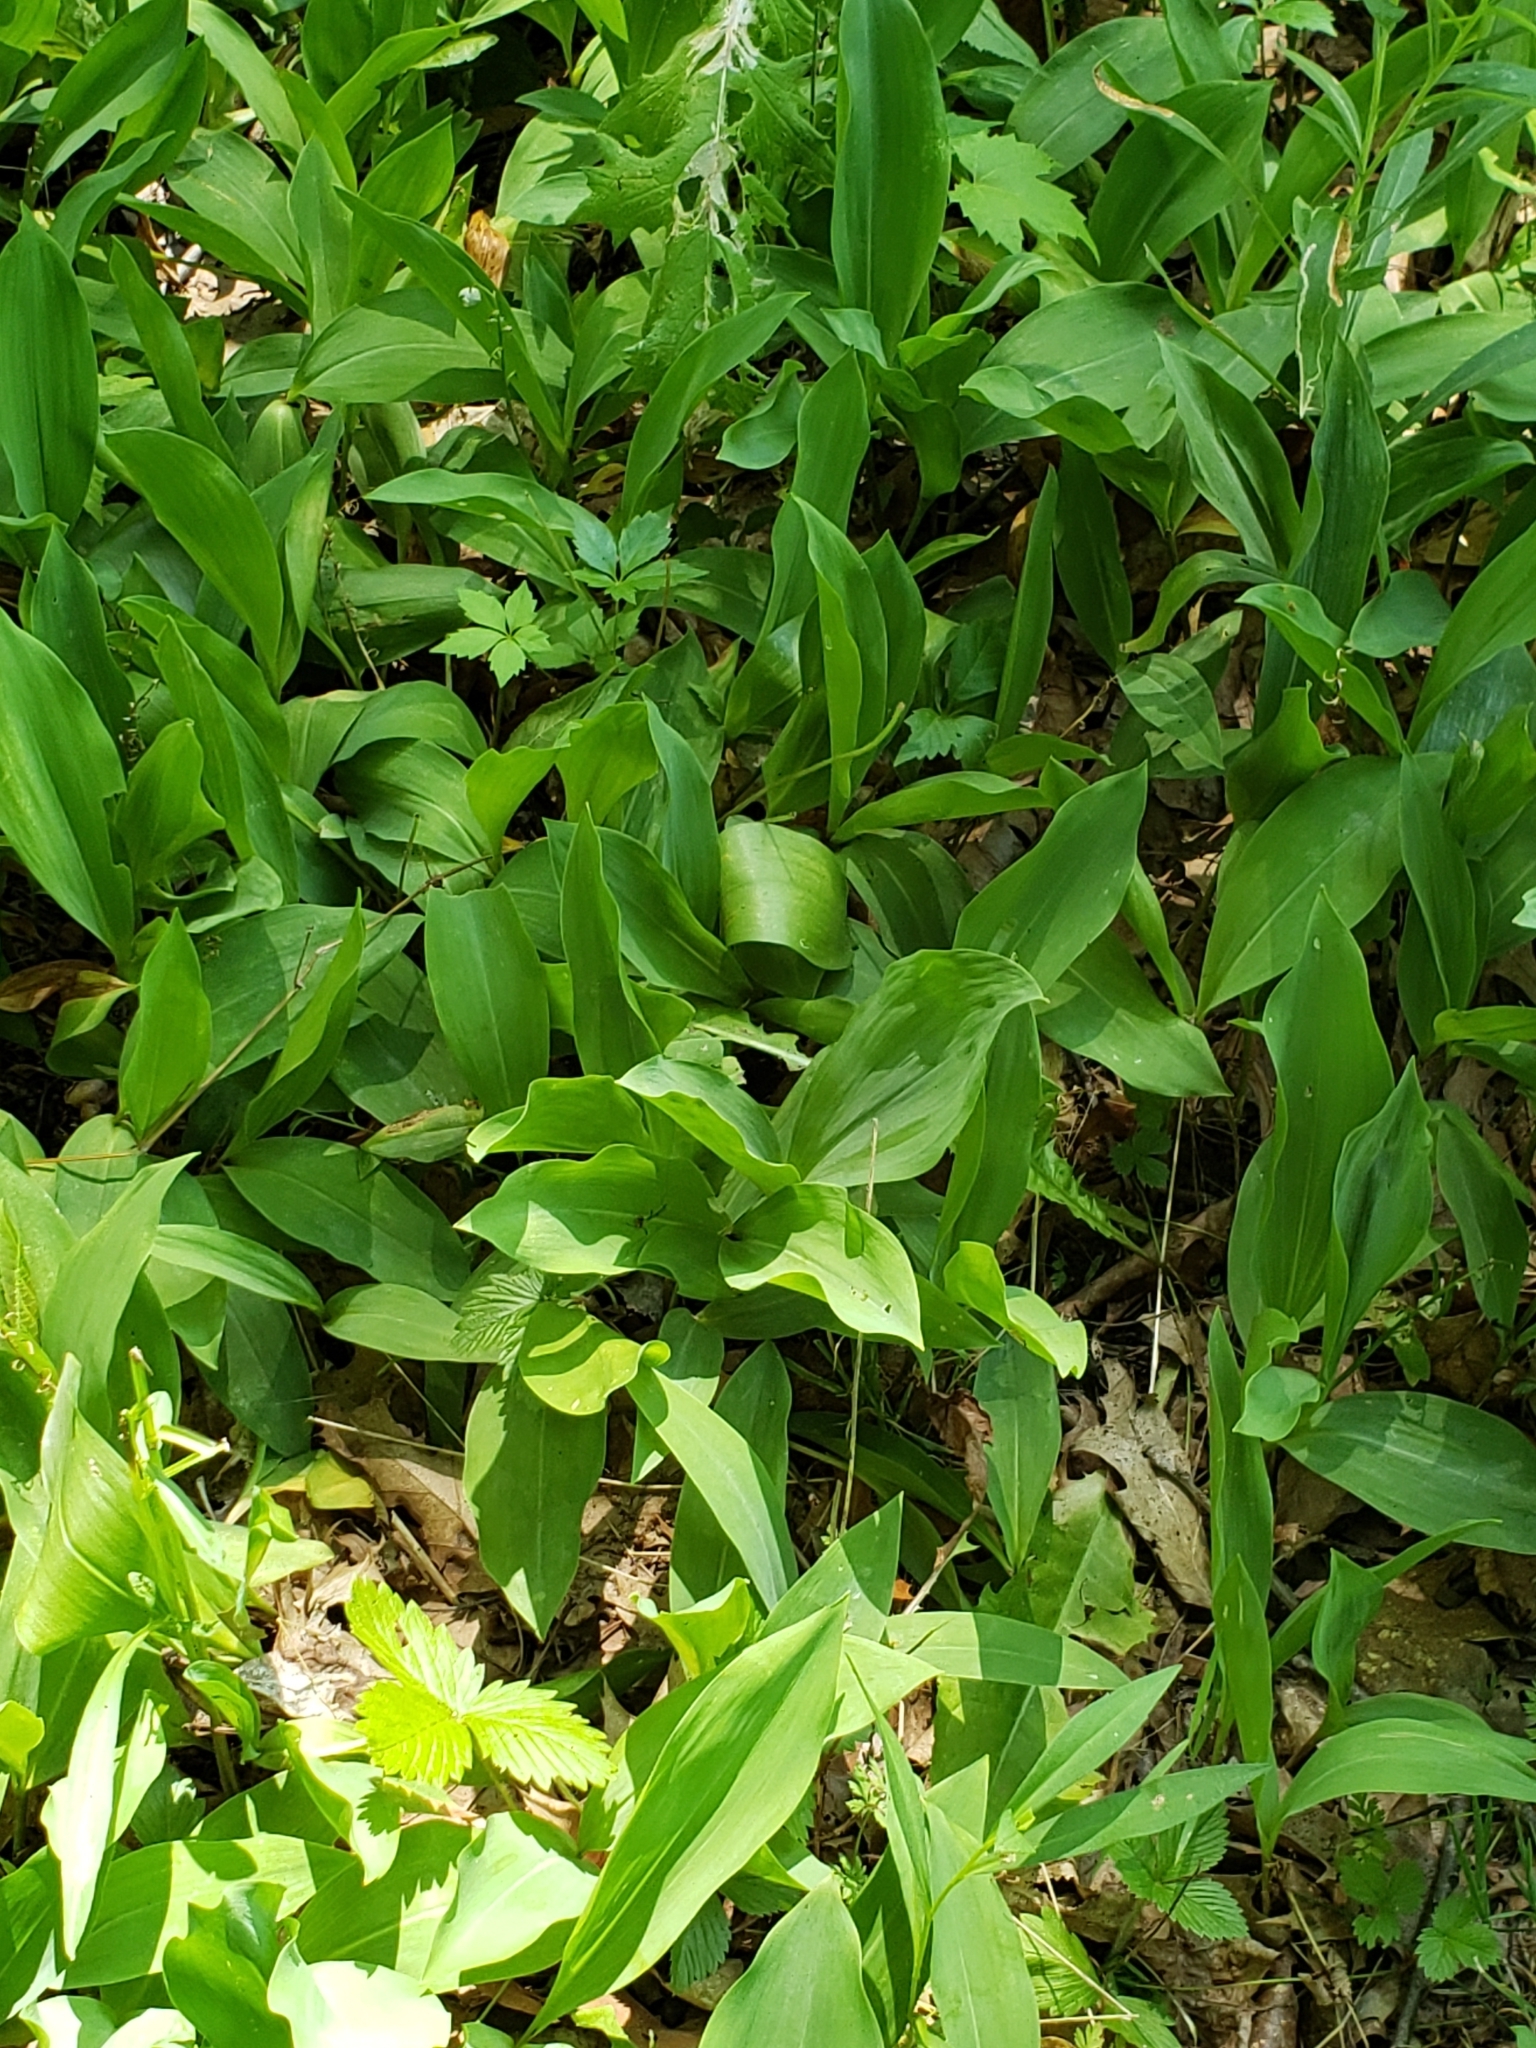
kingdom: Plantae
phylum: Tracheophyta
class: Liliopsida
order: Asparagales
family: Asparagaceae
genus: Convallaria
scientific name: Convallaria majalis
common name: Lily-of-the-valley
